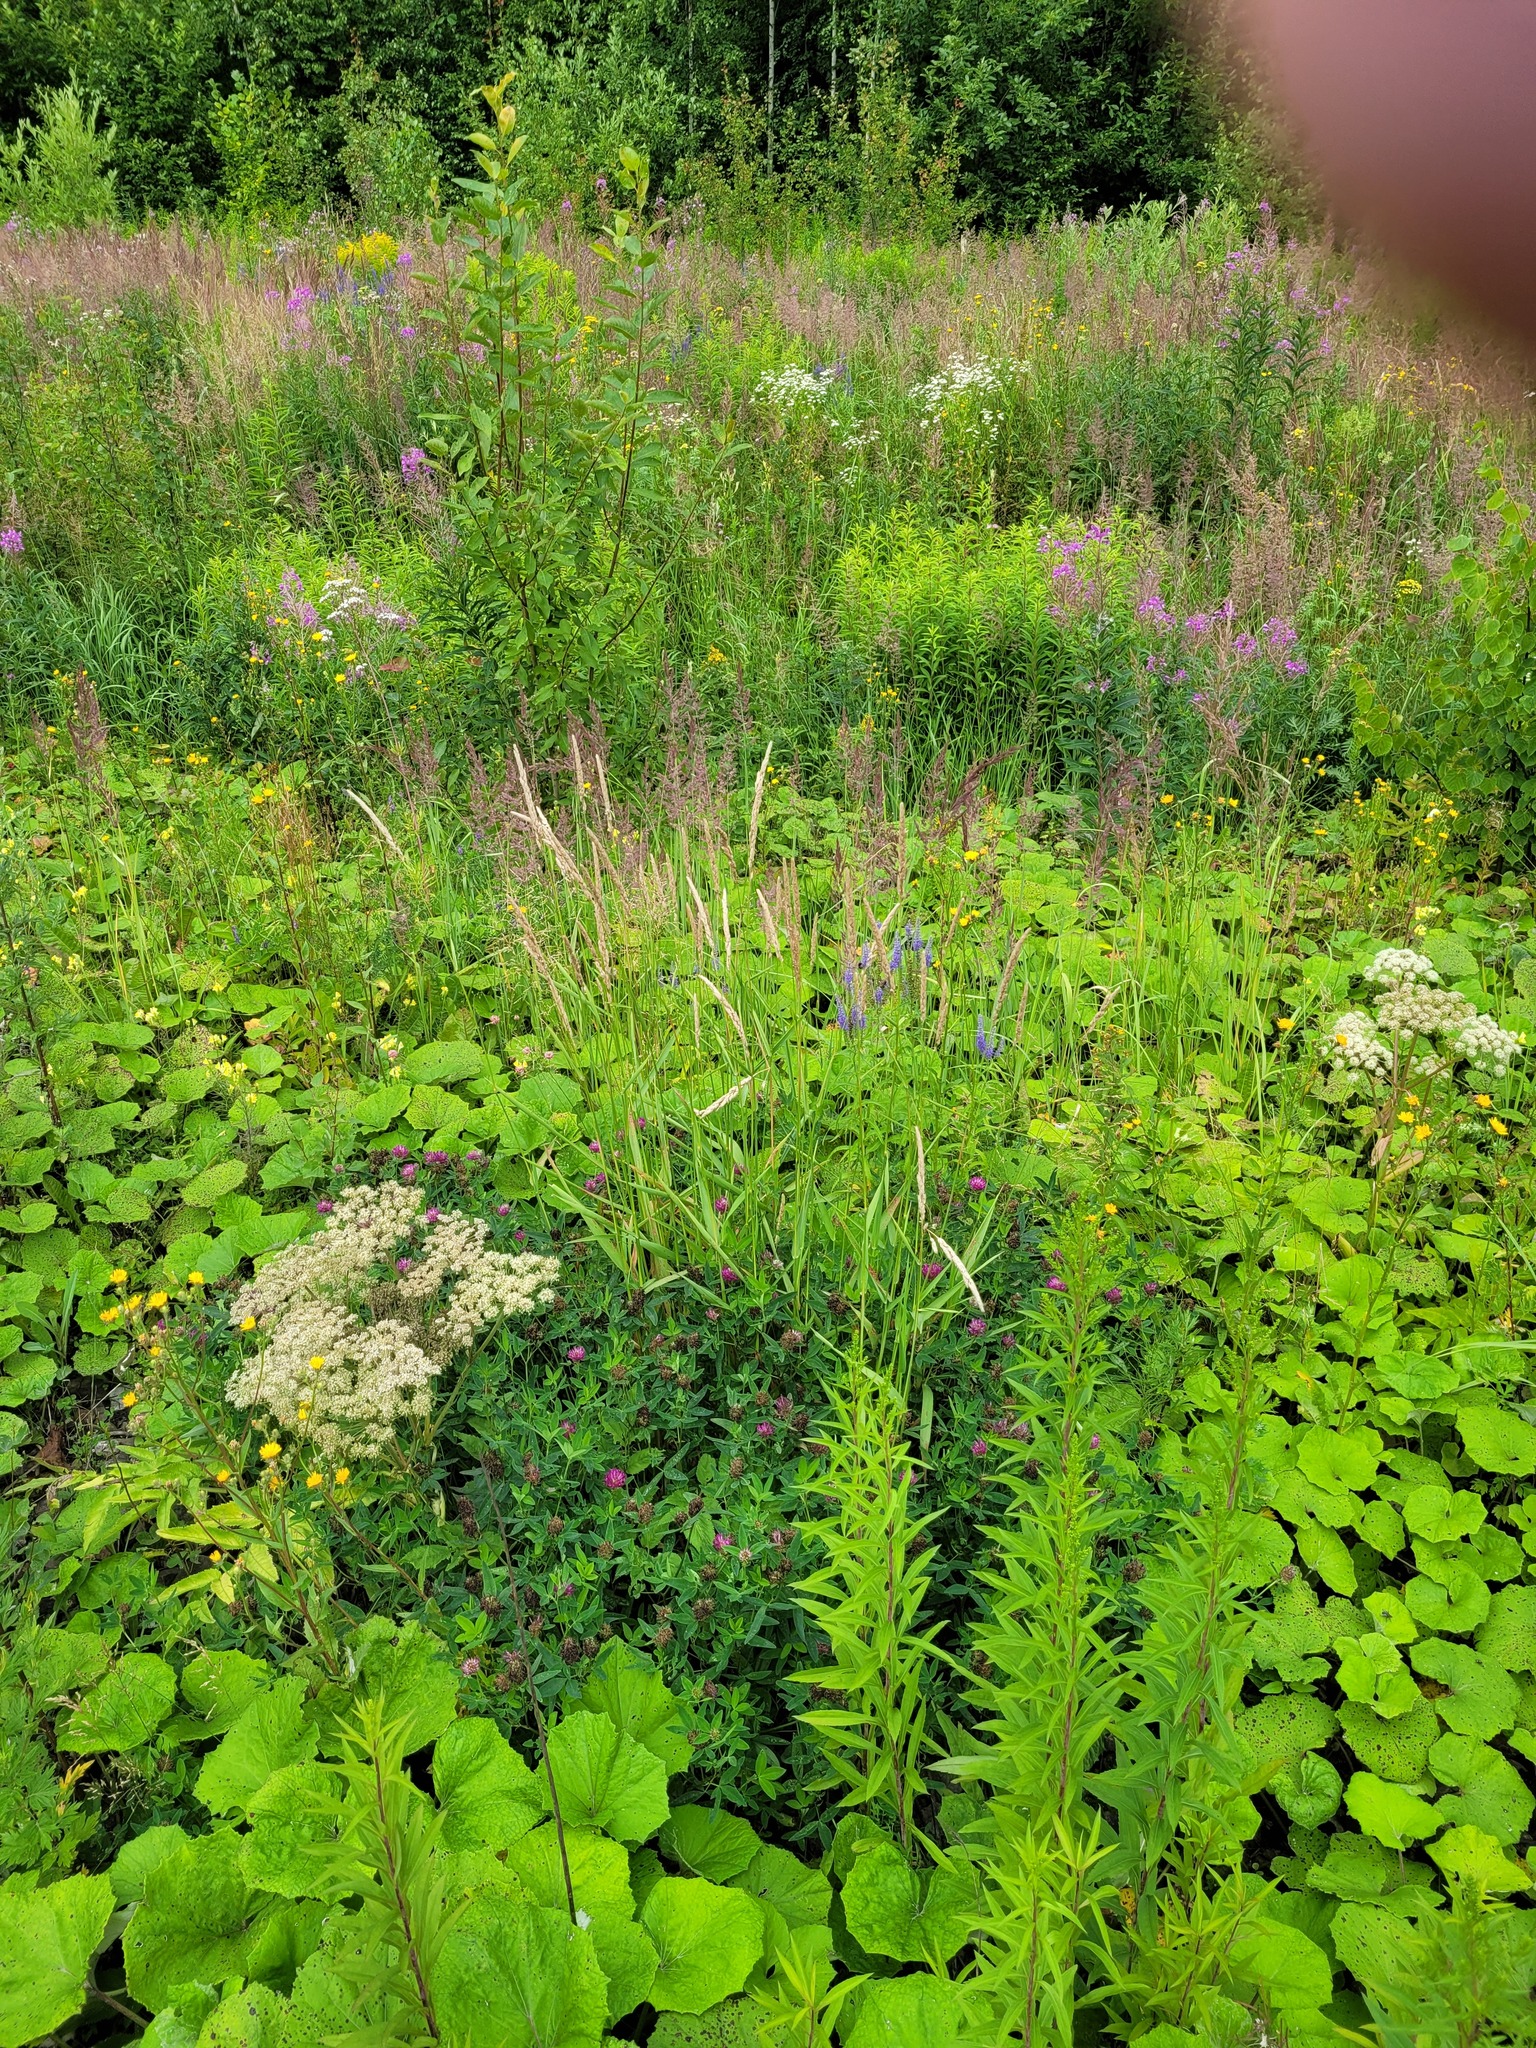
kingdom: Plantae
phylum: Tracheophyta
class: Liliopsida
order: Poales
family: Poaceae
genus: Phalaris
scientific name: Phalaris arundinacea
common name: Reed canary-grass
